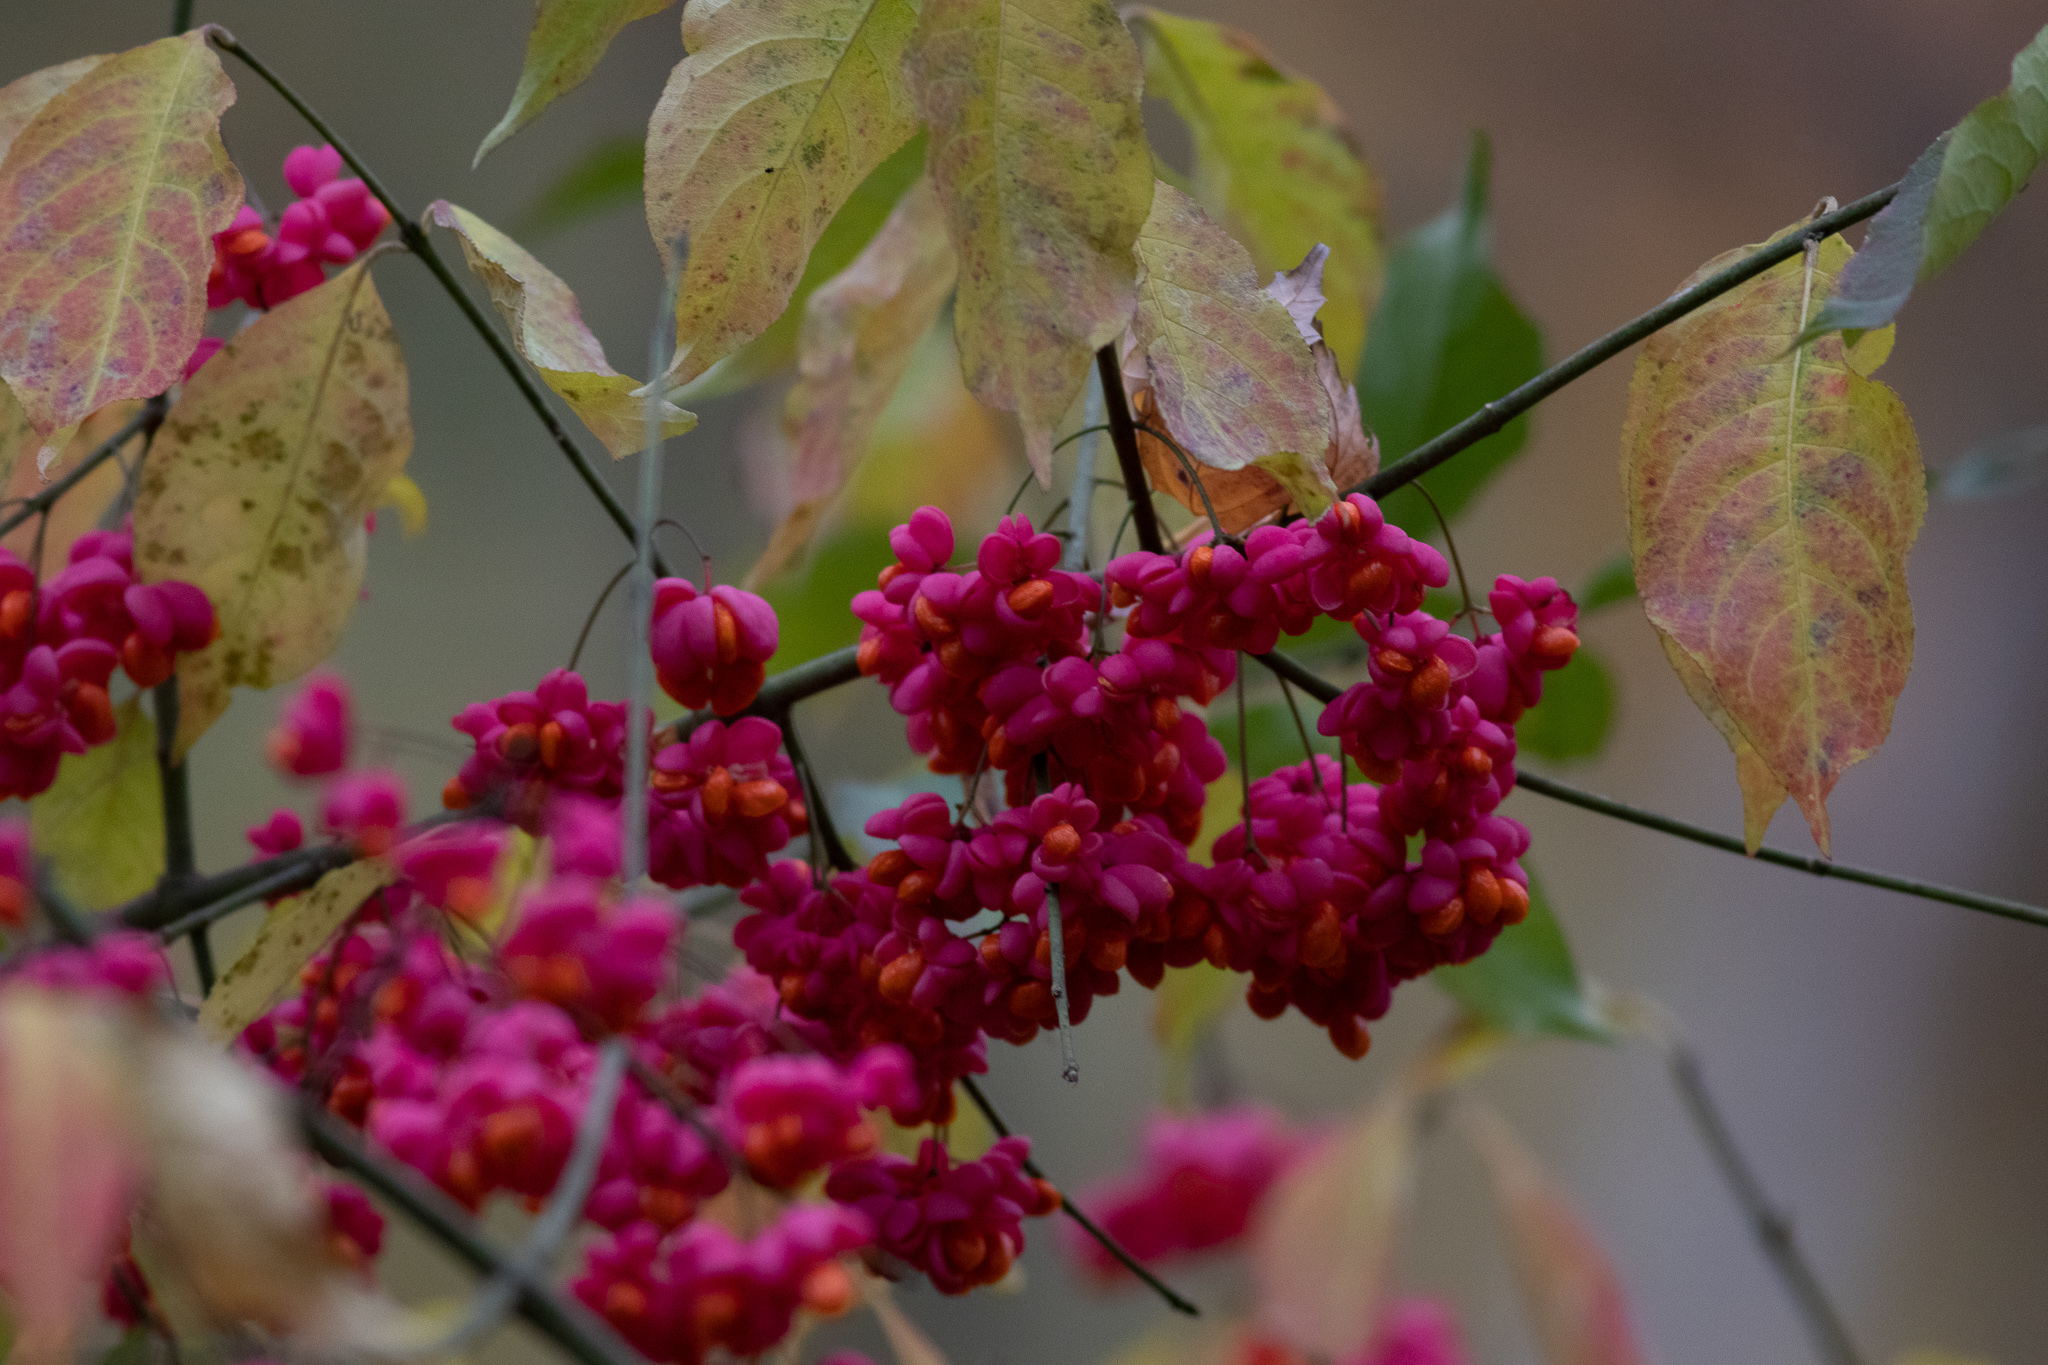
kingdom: Plantae
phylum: Tracheophyta
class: Magnoliopsida
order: Celastrales
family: Celastraceae
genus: Euonymus
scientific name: Euonymus europaeus
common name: Spindle
